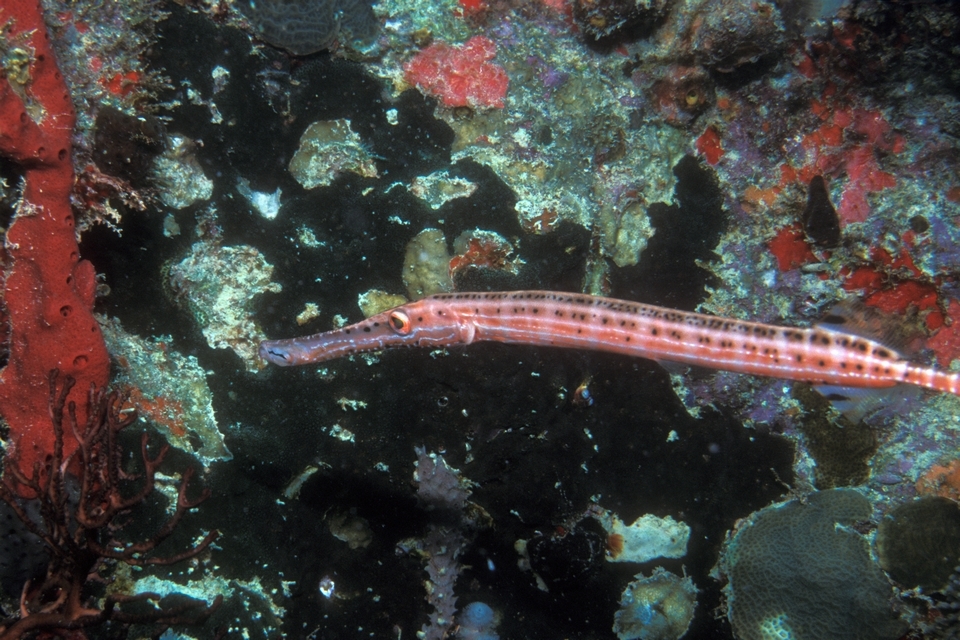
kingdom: Animalia
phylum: Chordata
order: Syngnathiformes
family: Aulostomidae
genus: Aulostomus
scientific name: Aulostomus maculatus
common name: West atlantic trumpetfish
